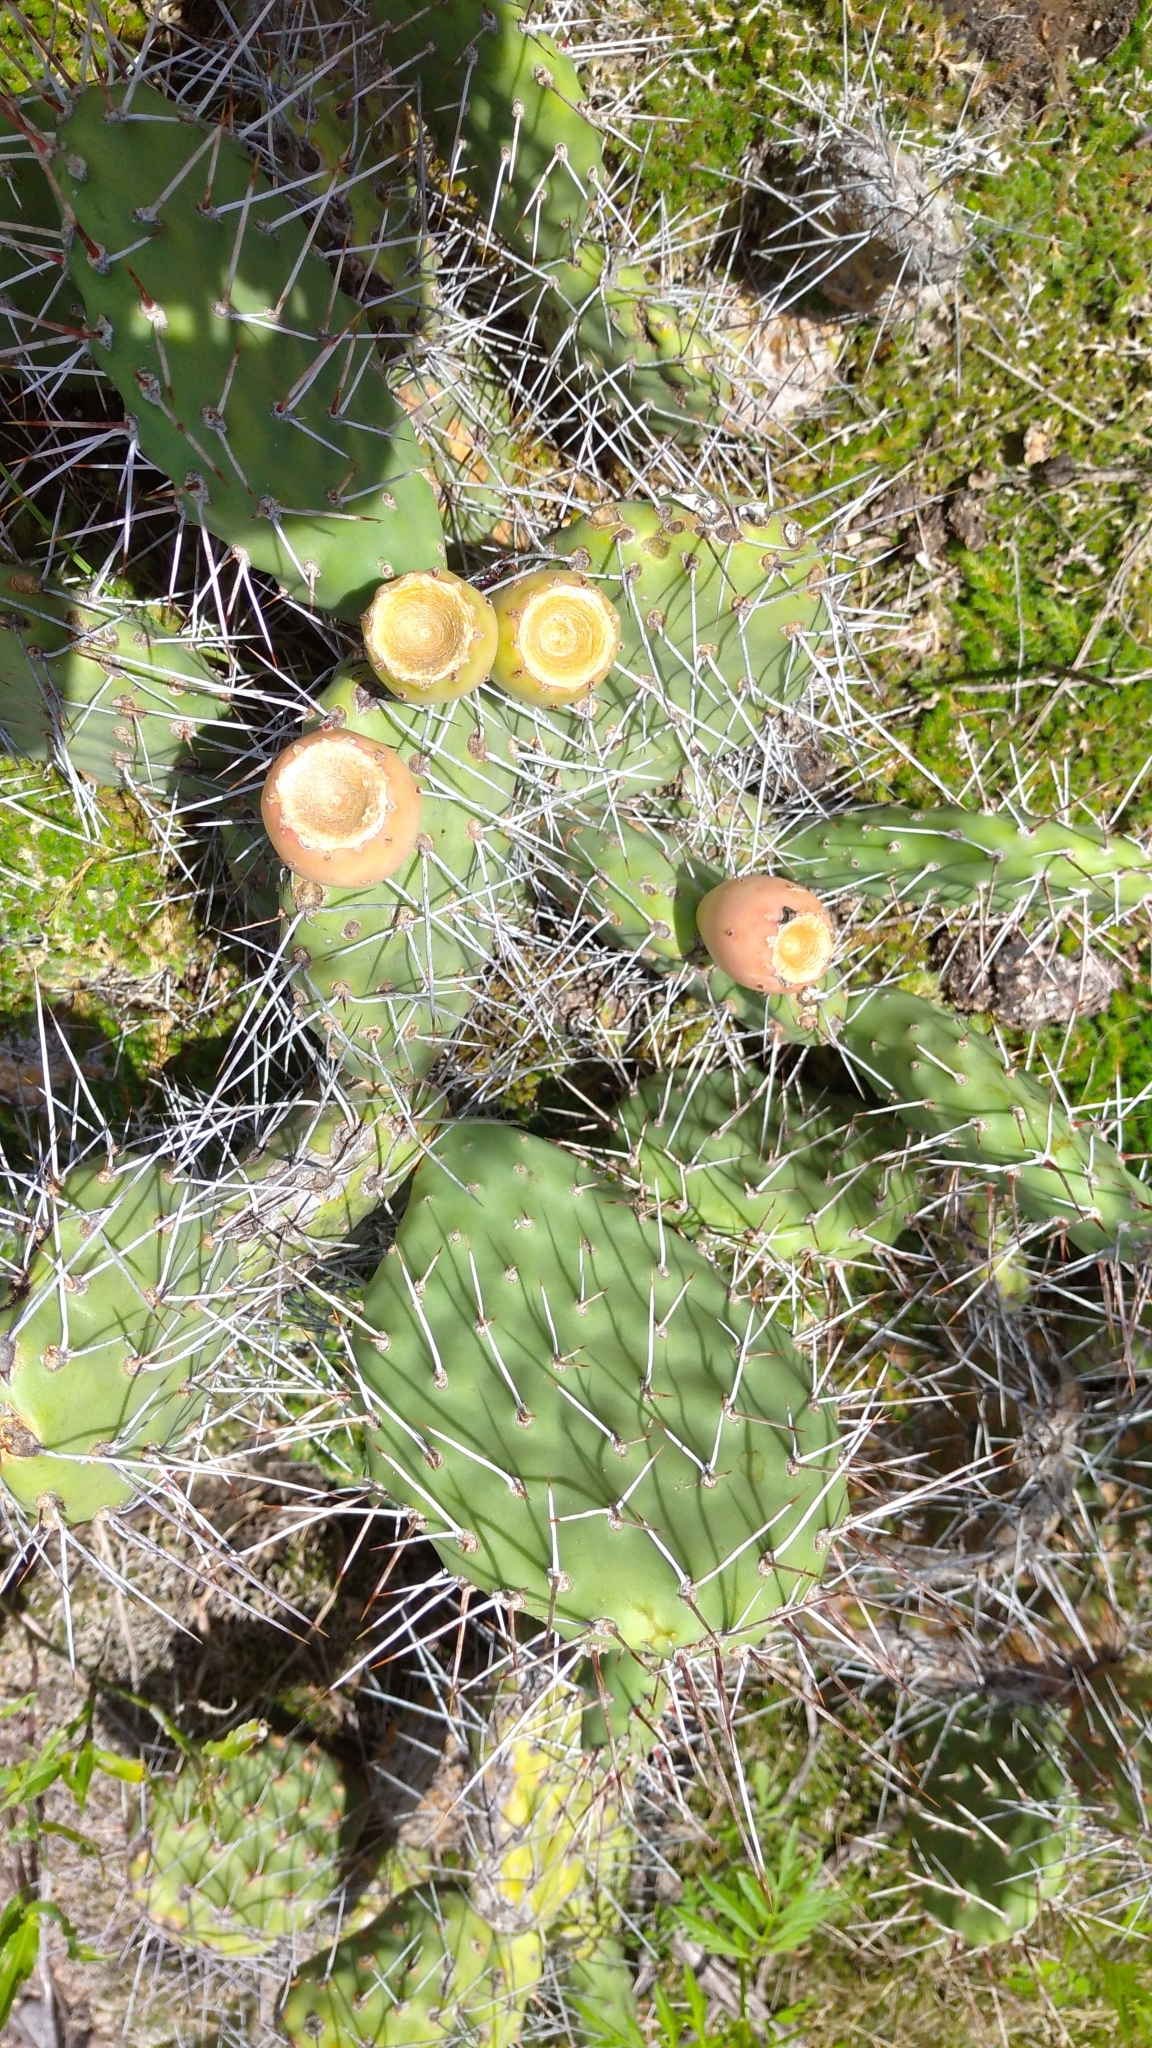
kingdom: Plantae
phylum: Tracheophyta
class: Magnoliopsida
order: Caryophyllales
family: Cactaceae
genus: Opuntia
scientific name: Opuntia sulphurea
